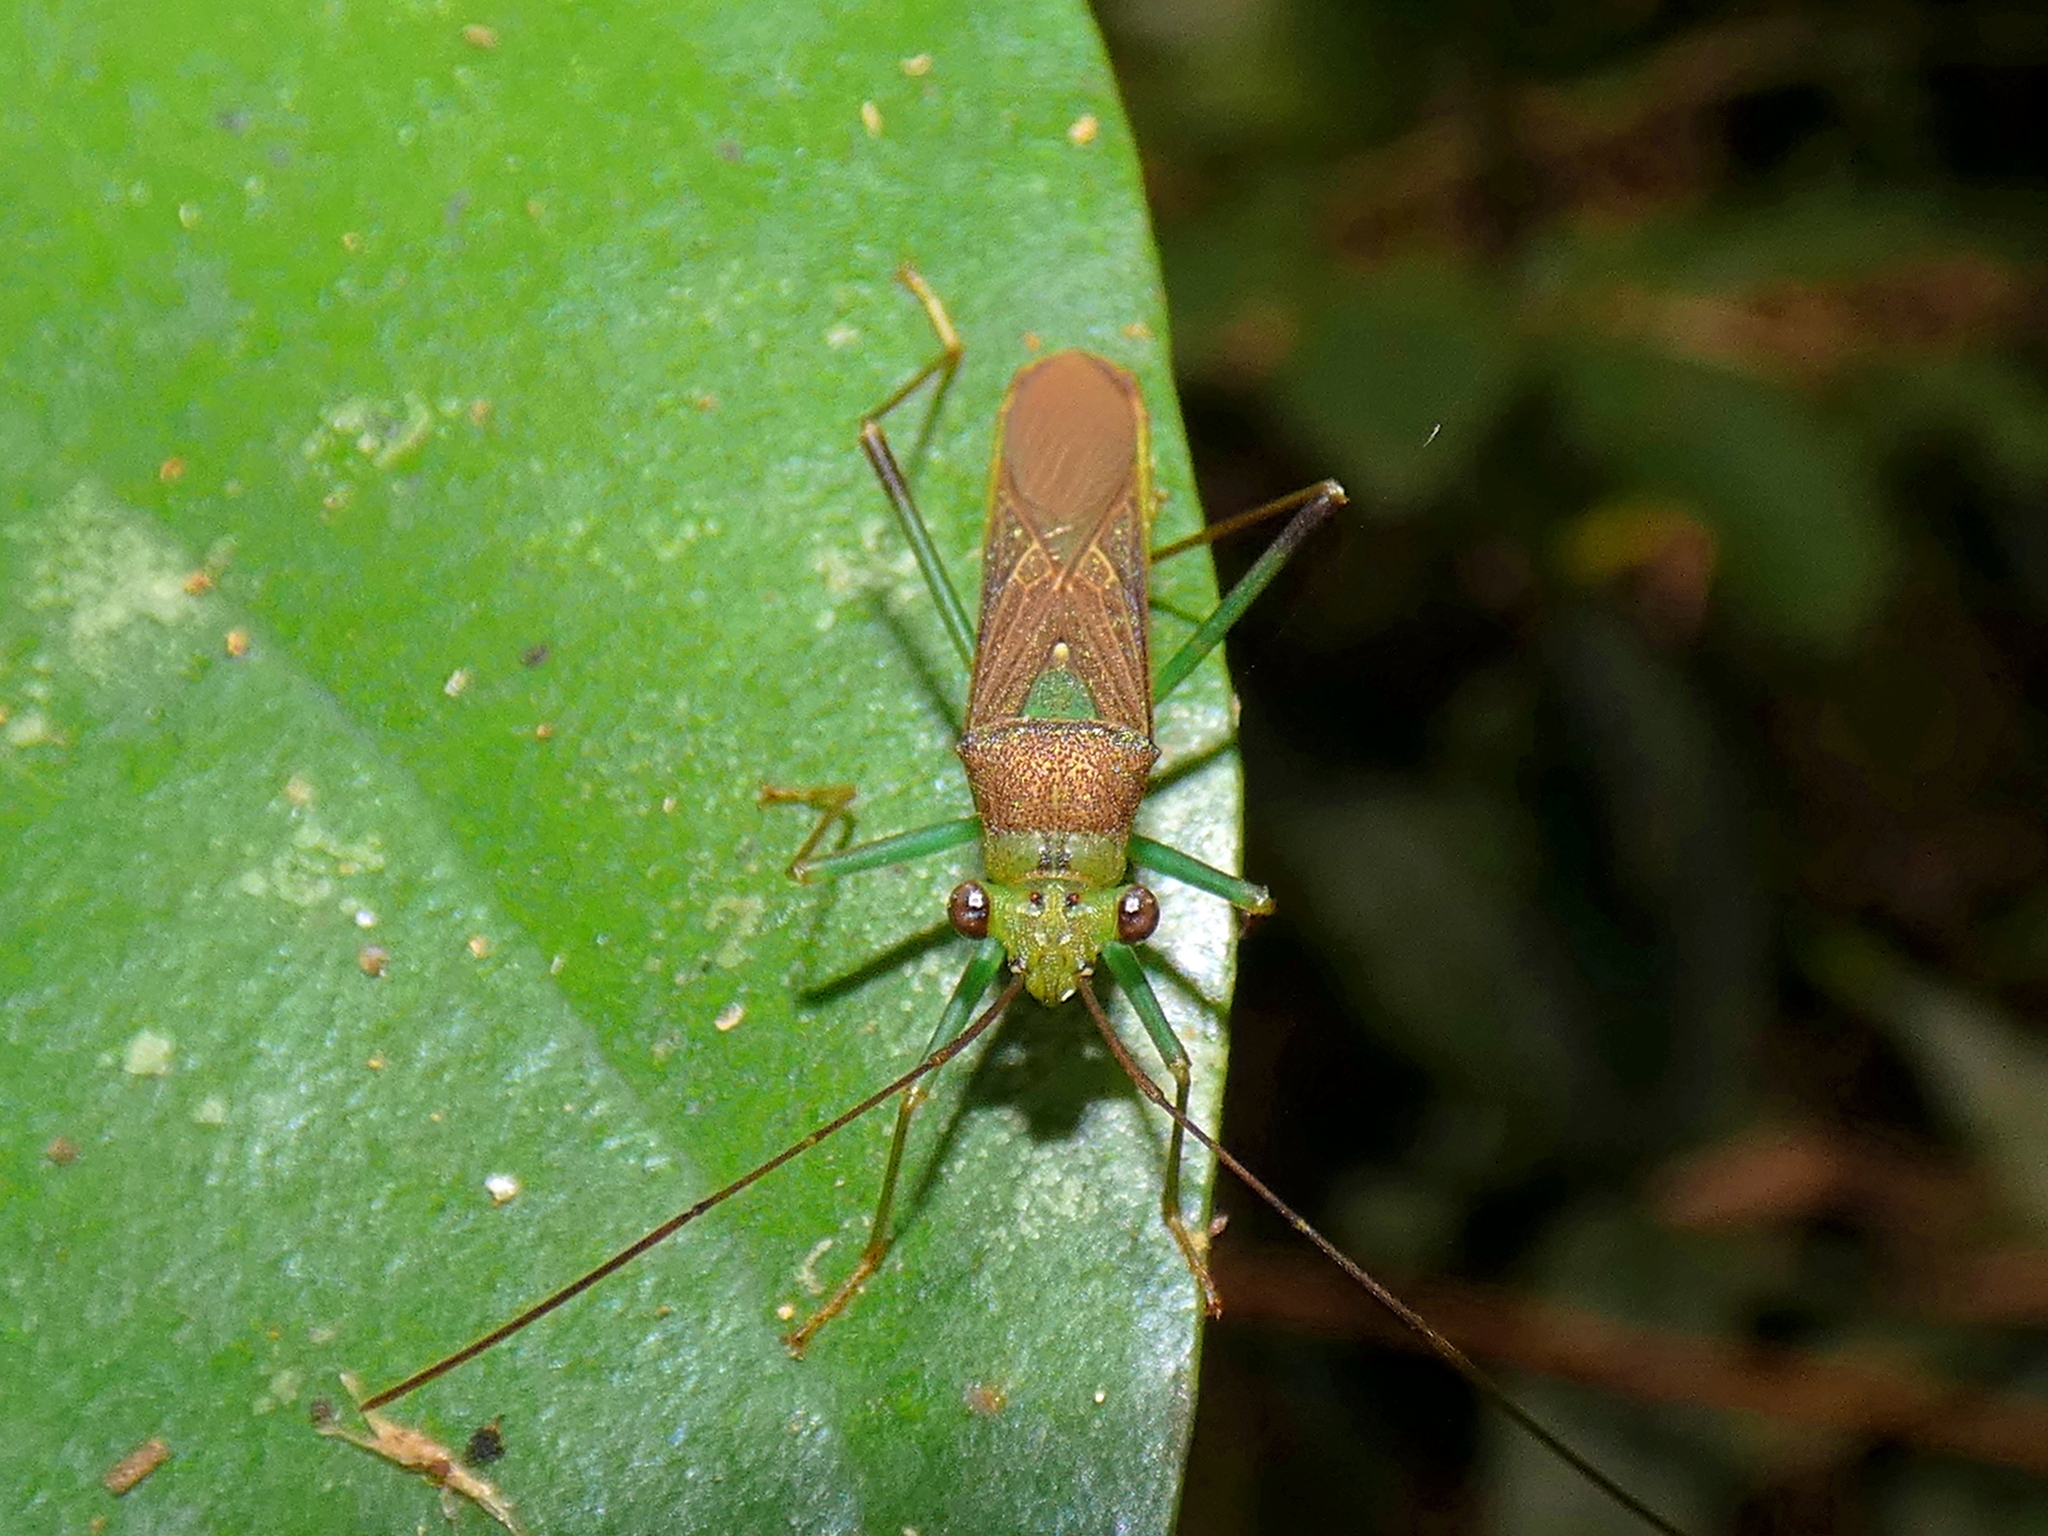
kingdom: Animalia
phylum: Arthropoda
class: Insecta
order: Hemiptera
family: Coreidae
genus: Piramurana
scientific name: Piramurana cyclops
